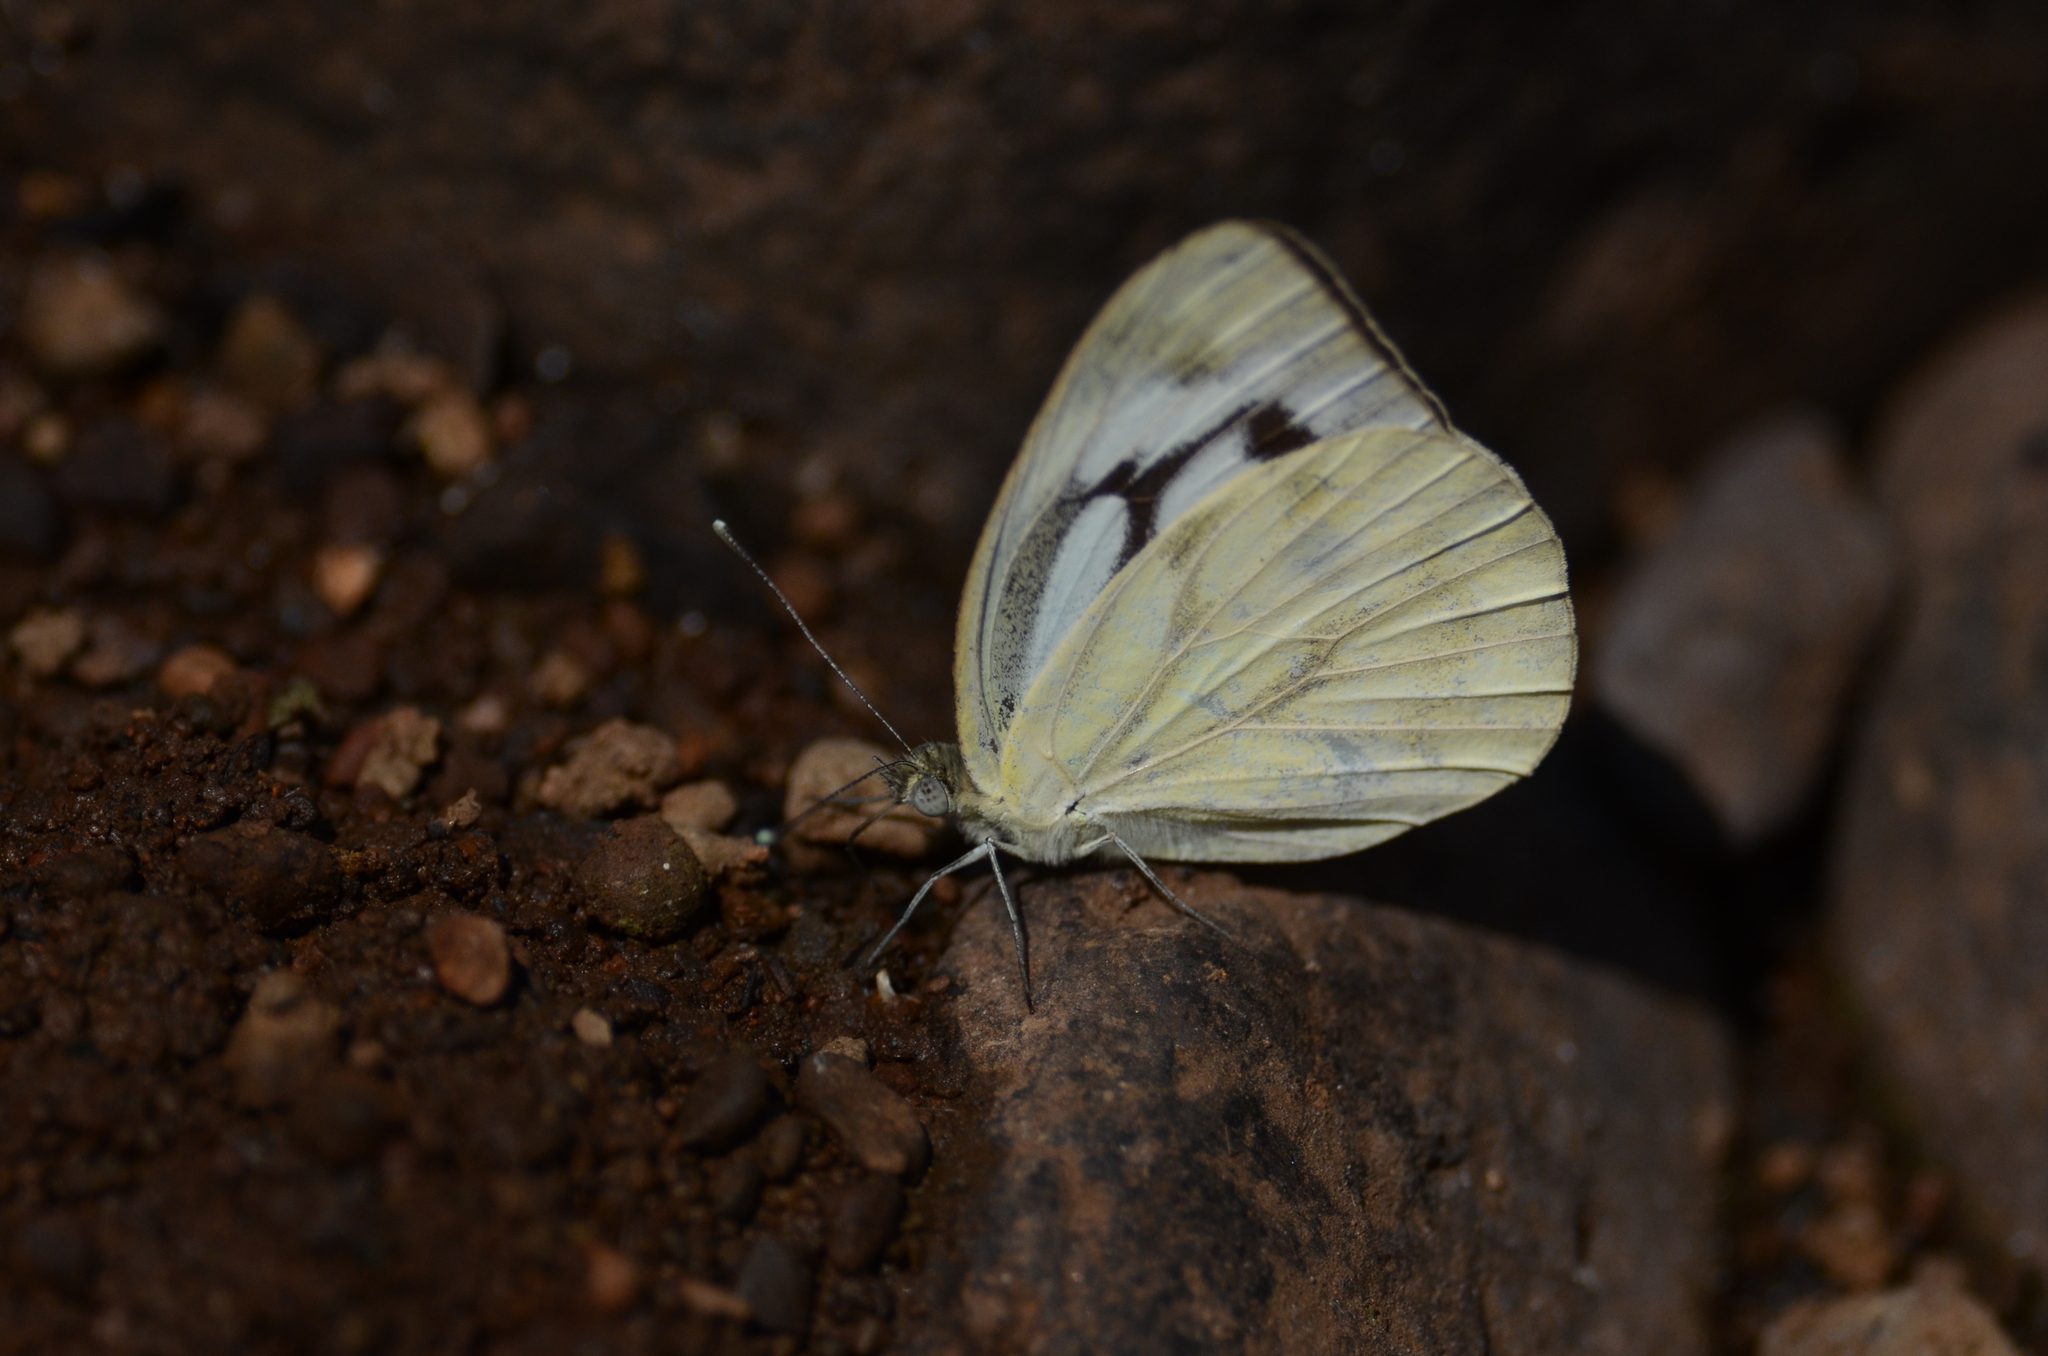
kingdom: Animalia
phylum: Arthropoda
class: Insecta
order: Lepidoptera
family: Pieridae
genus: Cepora
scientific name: Cepora nerissa
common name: Common gull
